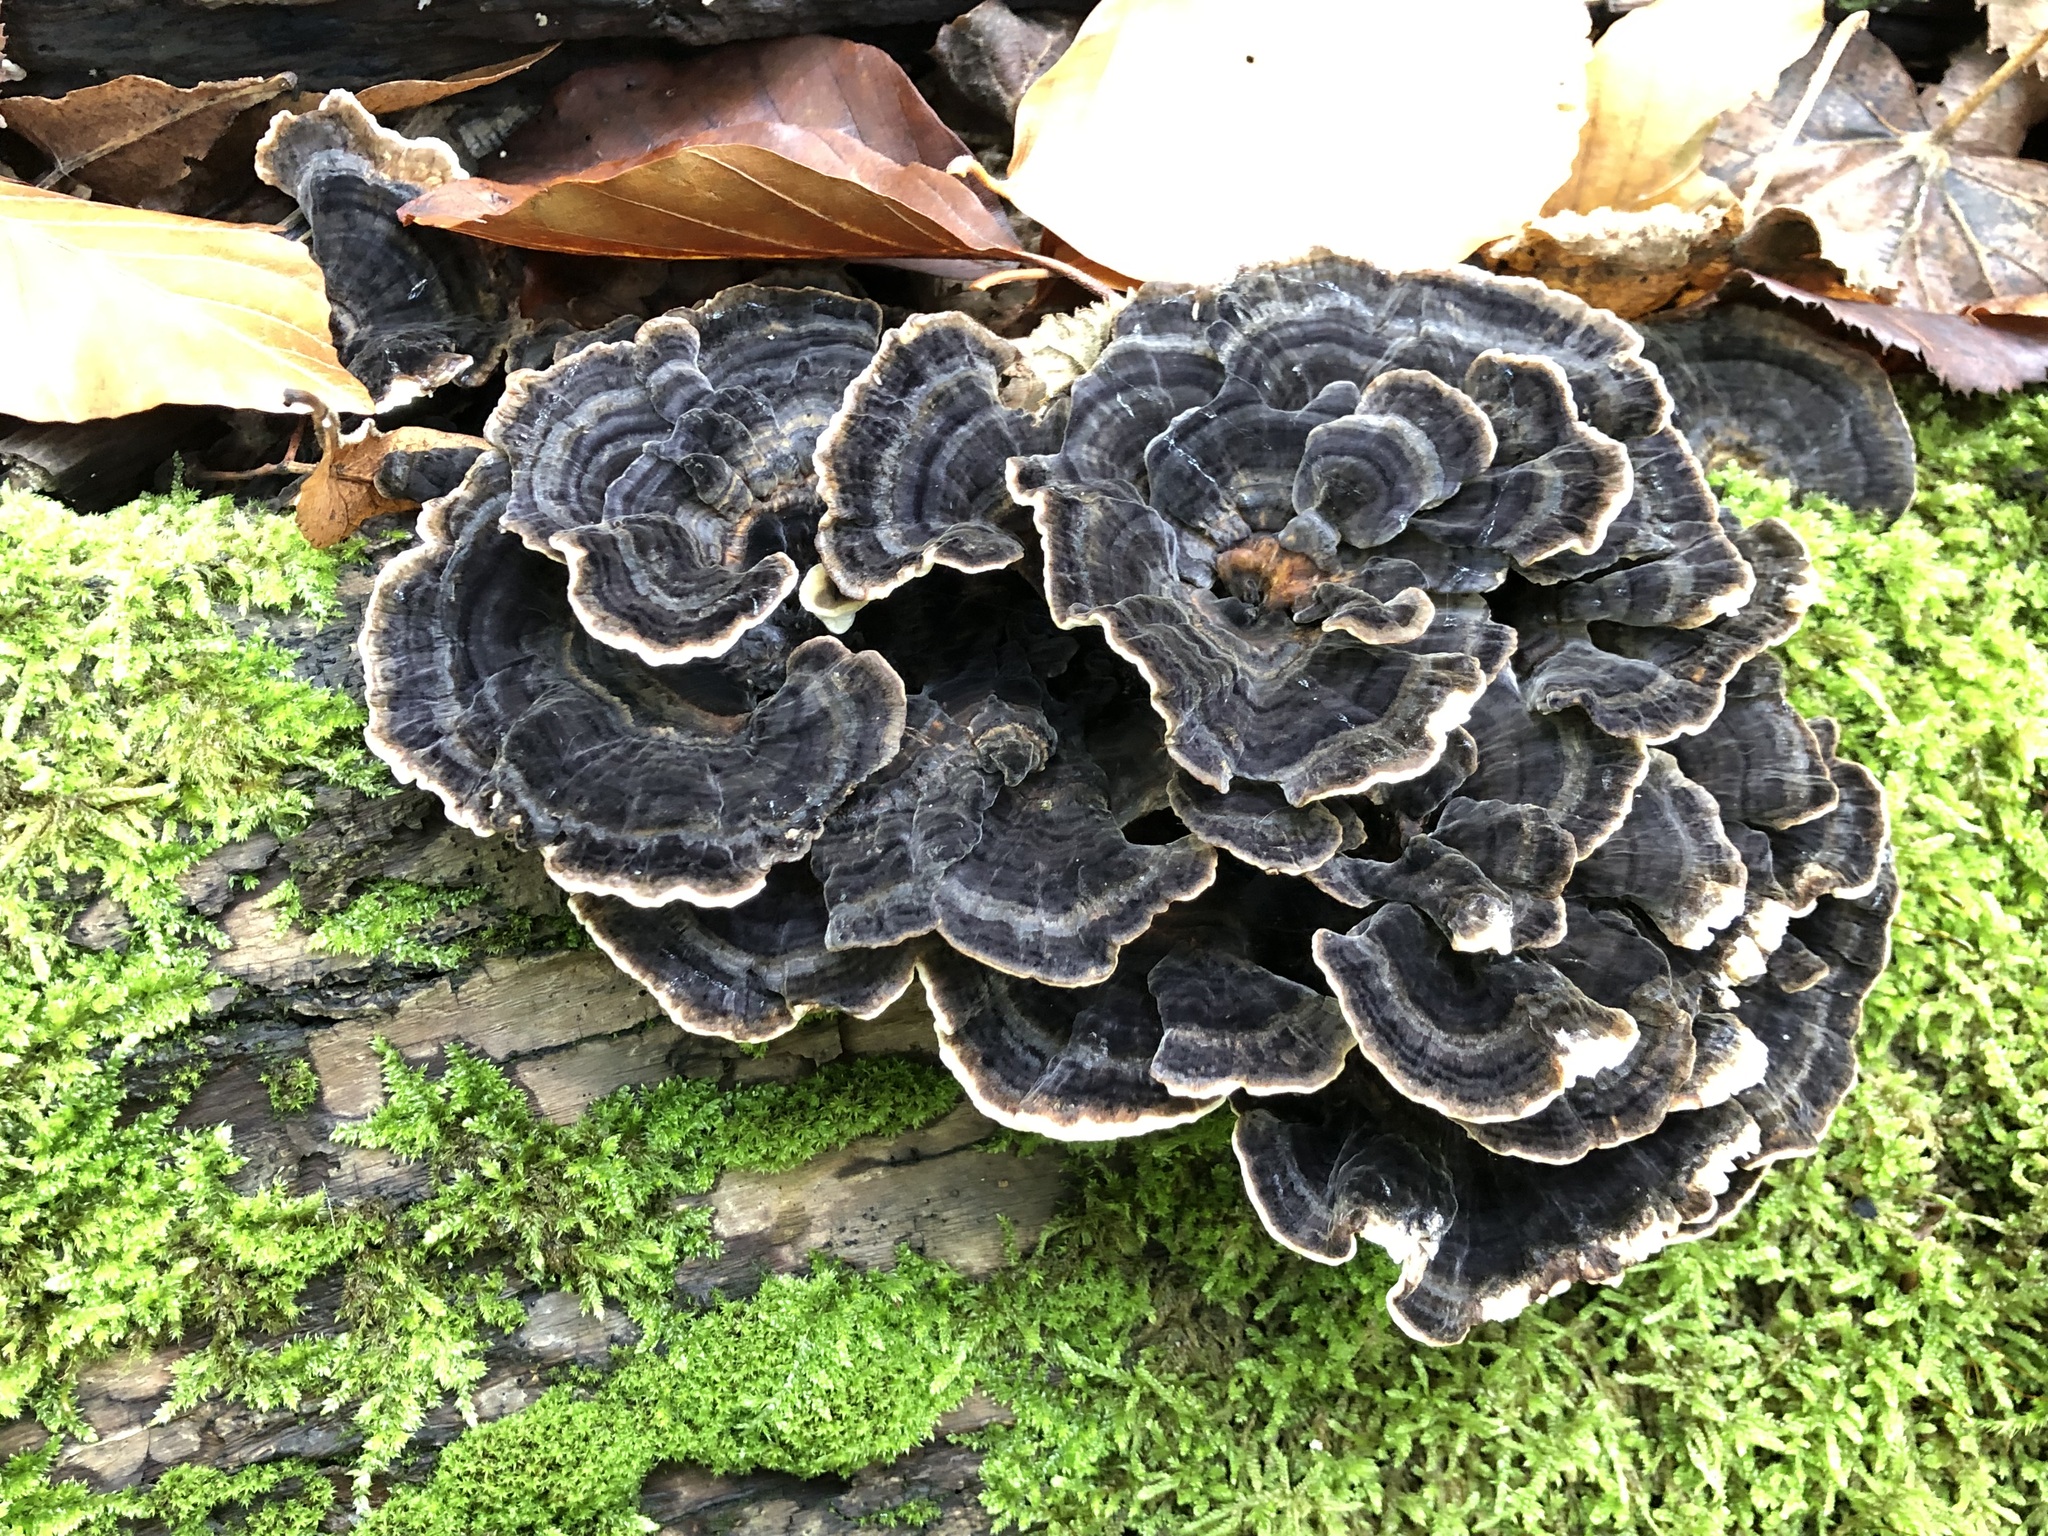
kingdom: Fungi
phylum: Basidiomycota
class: Agaricomycetes
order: Polyporales
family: Polyporaceae
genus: Trametes
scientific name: Trametes versicolor
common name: Turkeytail
